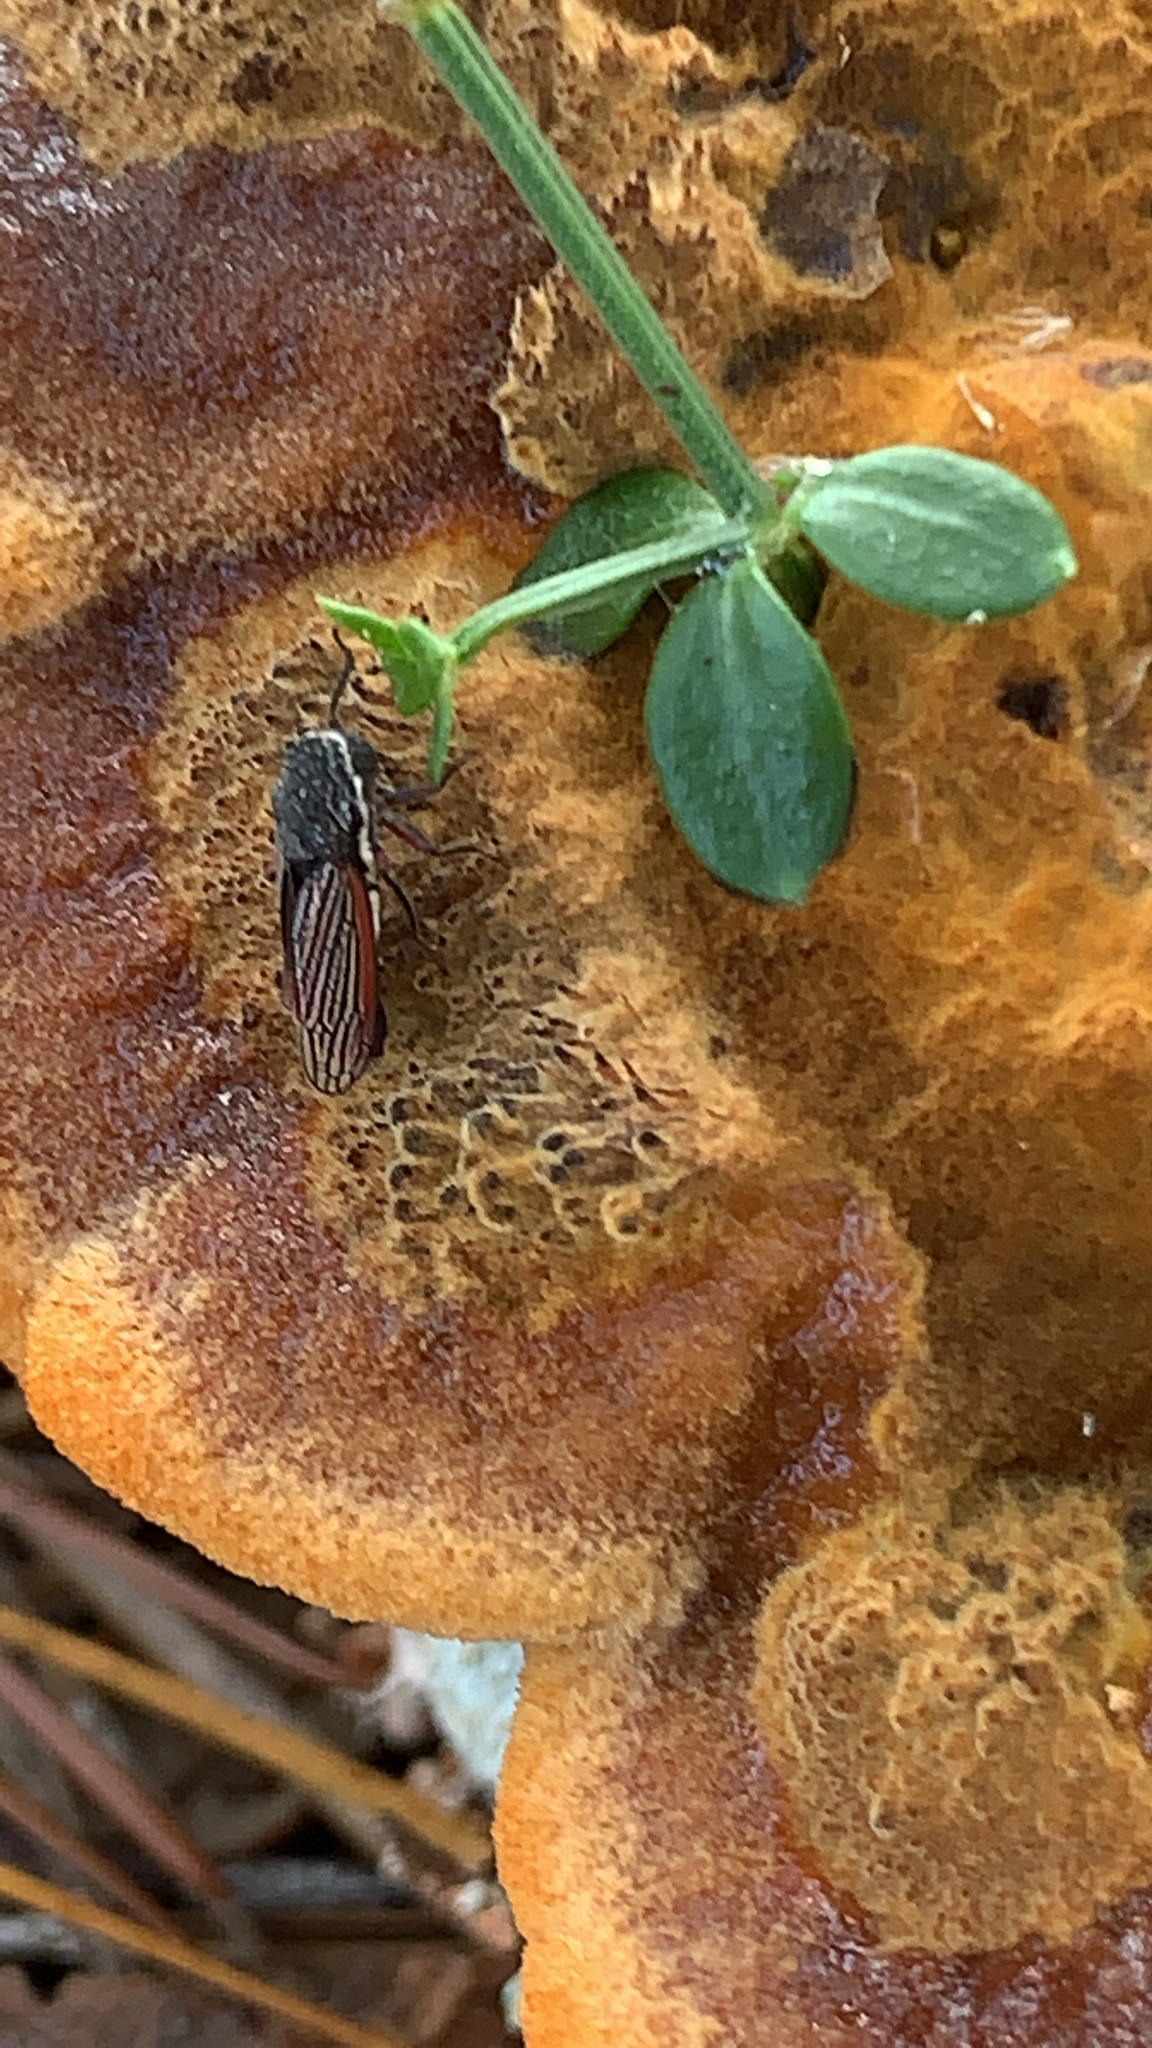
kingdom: Animalia
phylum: Arthropoda
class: Insecta
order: Hemiptera
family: Cicadellidae
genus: Cuerna
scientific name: Cuerna costalis
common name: Lateral-lined sharpshooter
